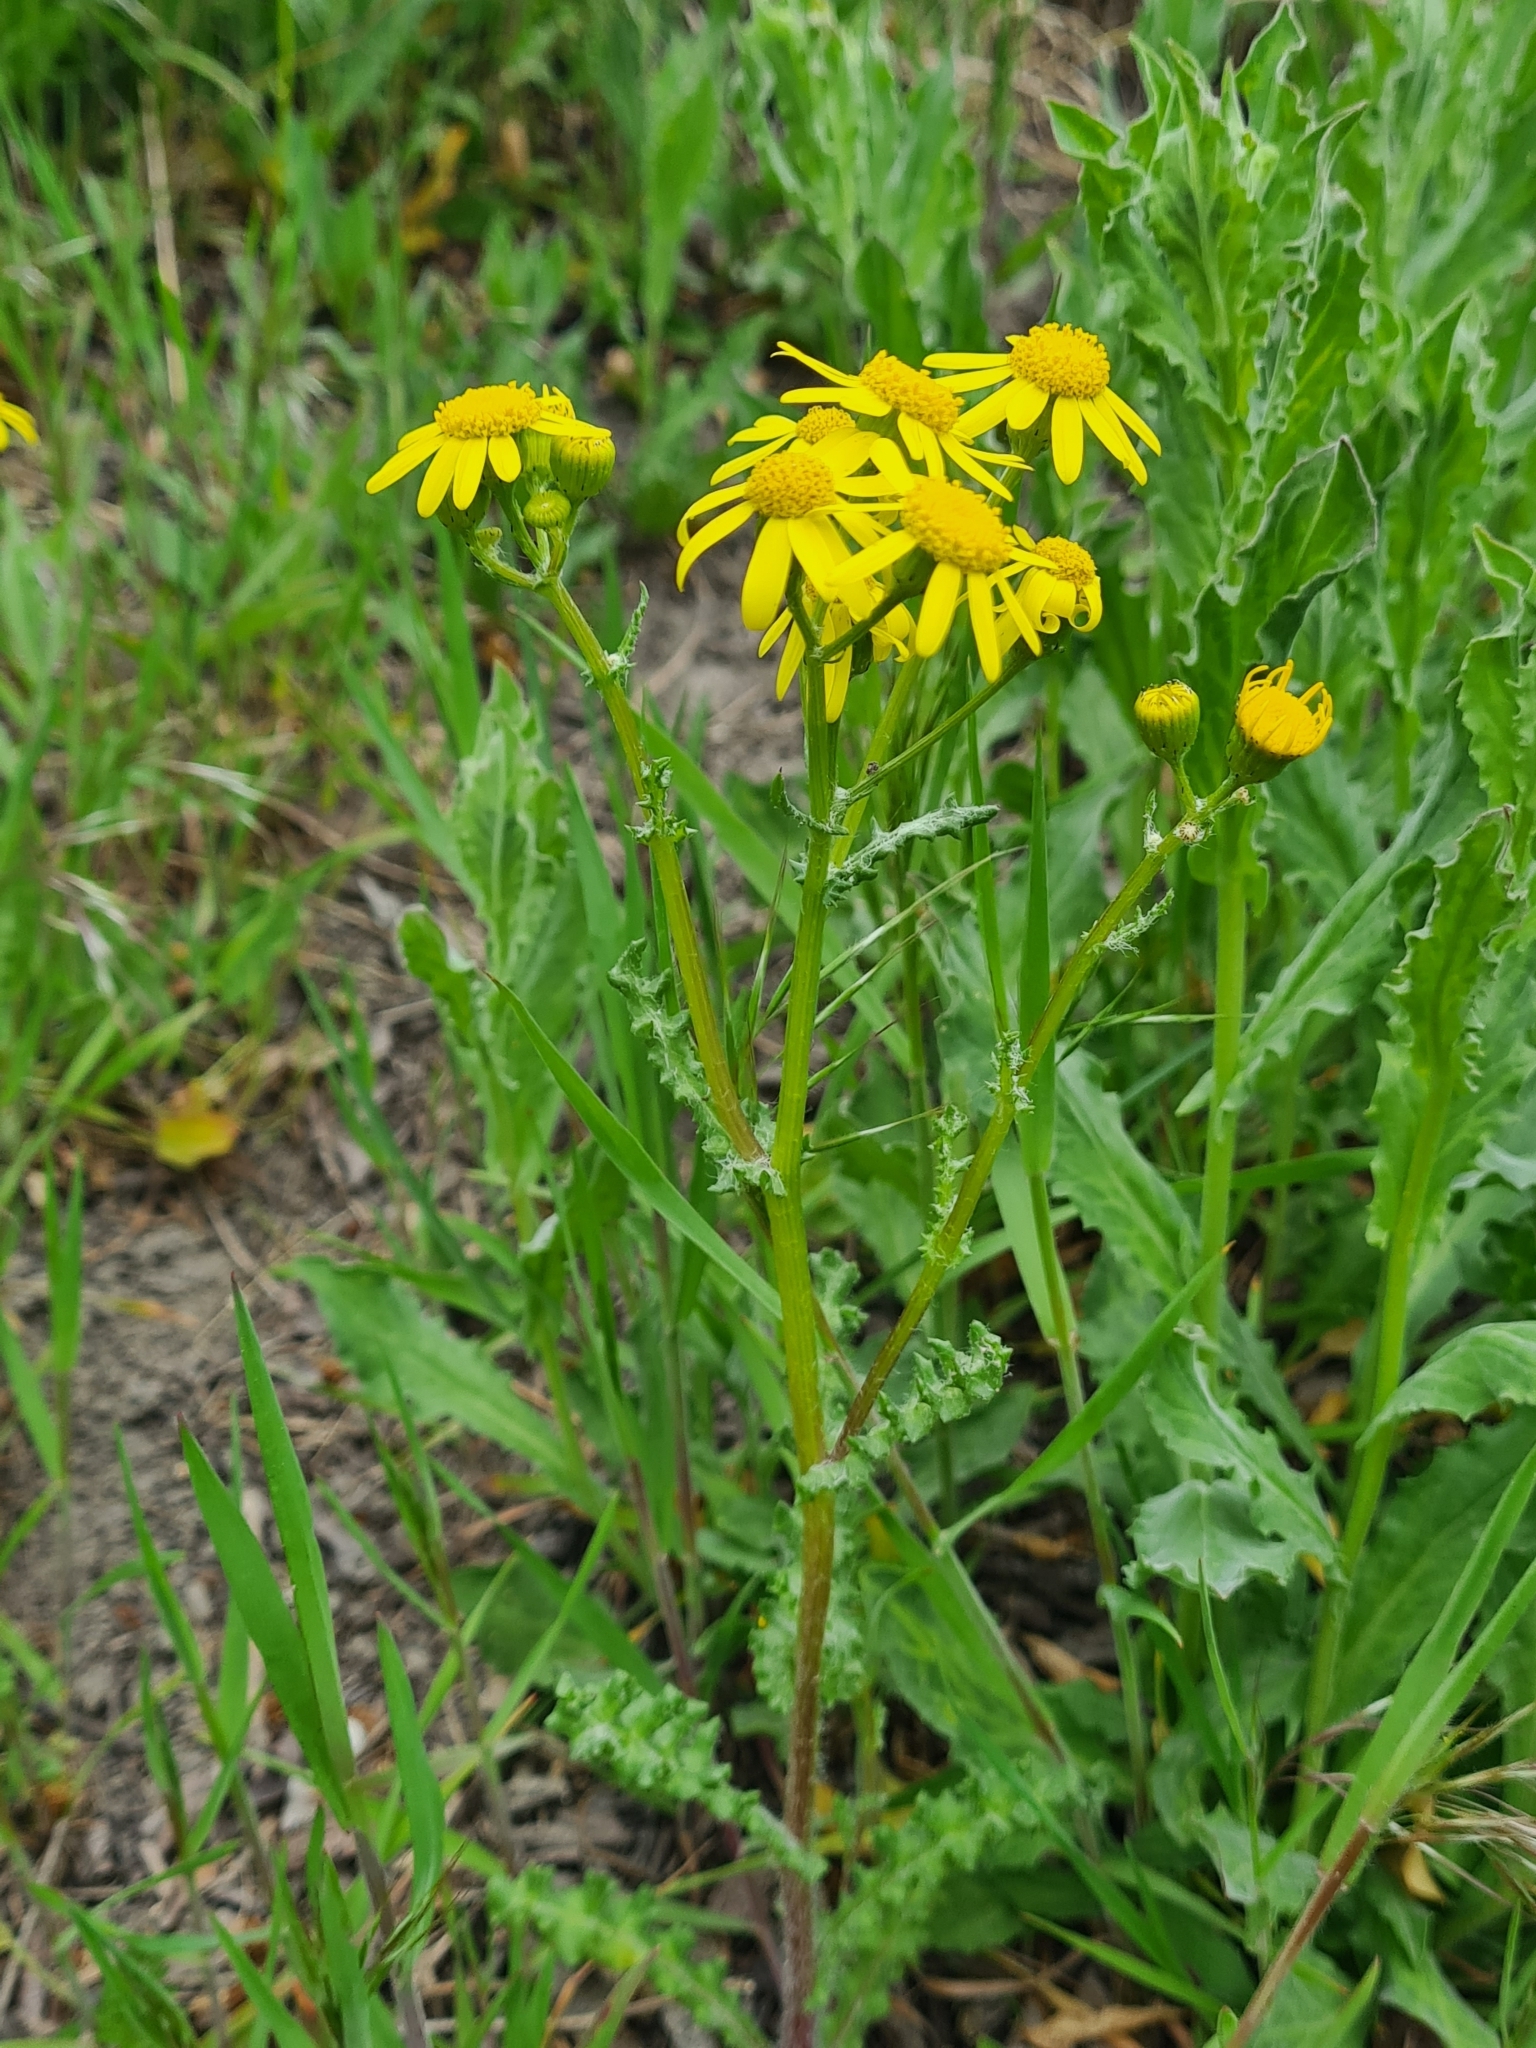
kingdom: Plantae
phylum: Tracheophyta
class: Magnoliopsida
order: Asterales
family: Asteraceae
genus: Senecio
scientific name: Senecio vernalis
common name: Eastern groundsel
